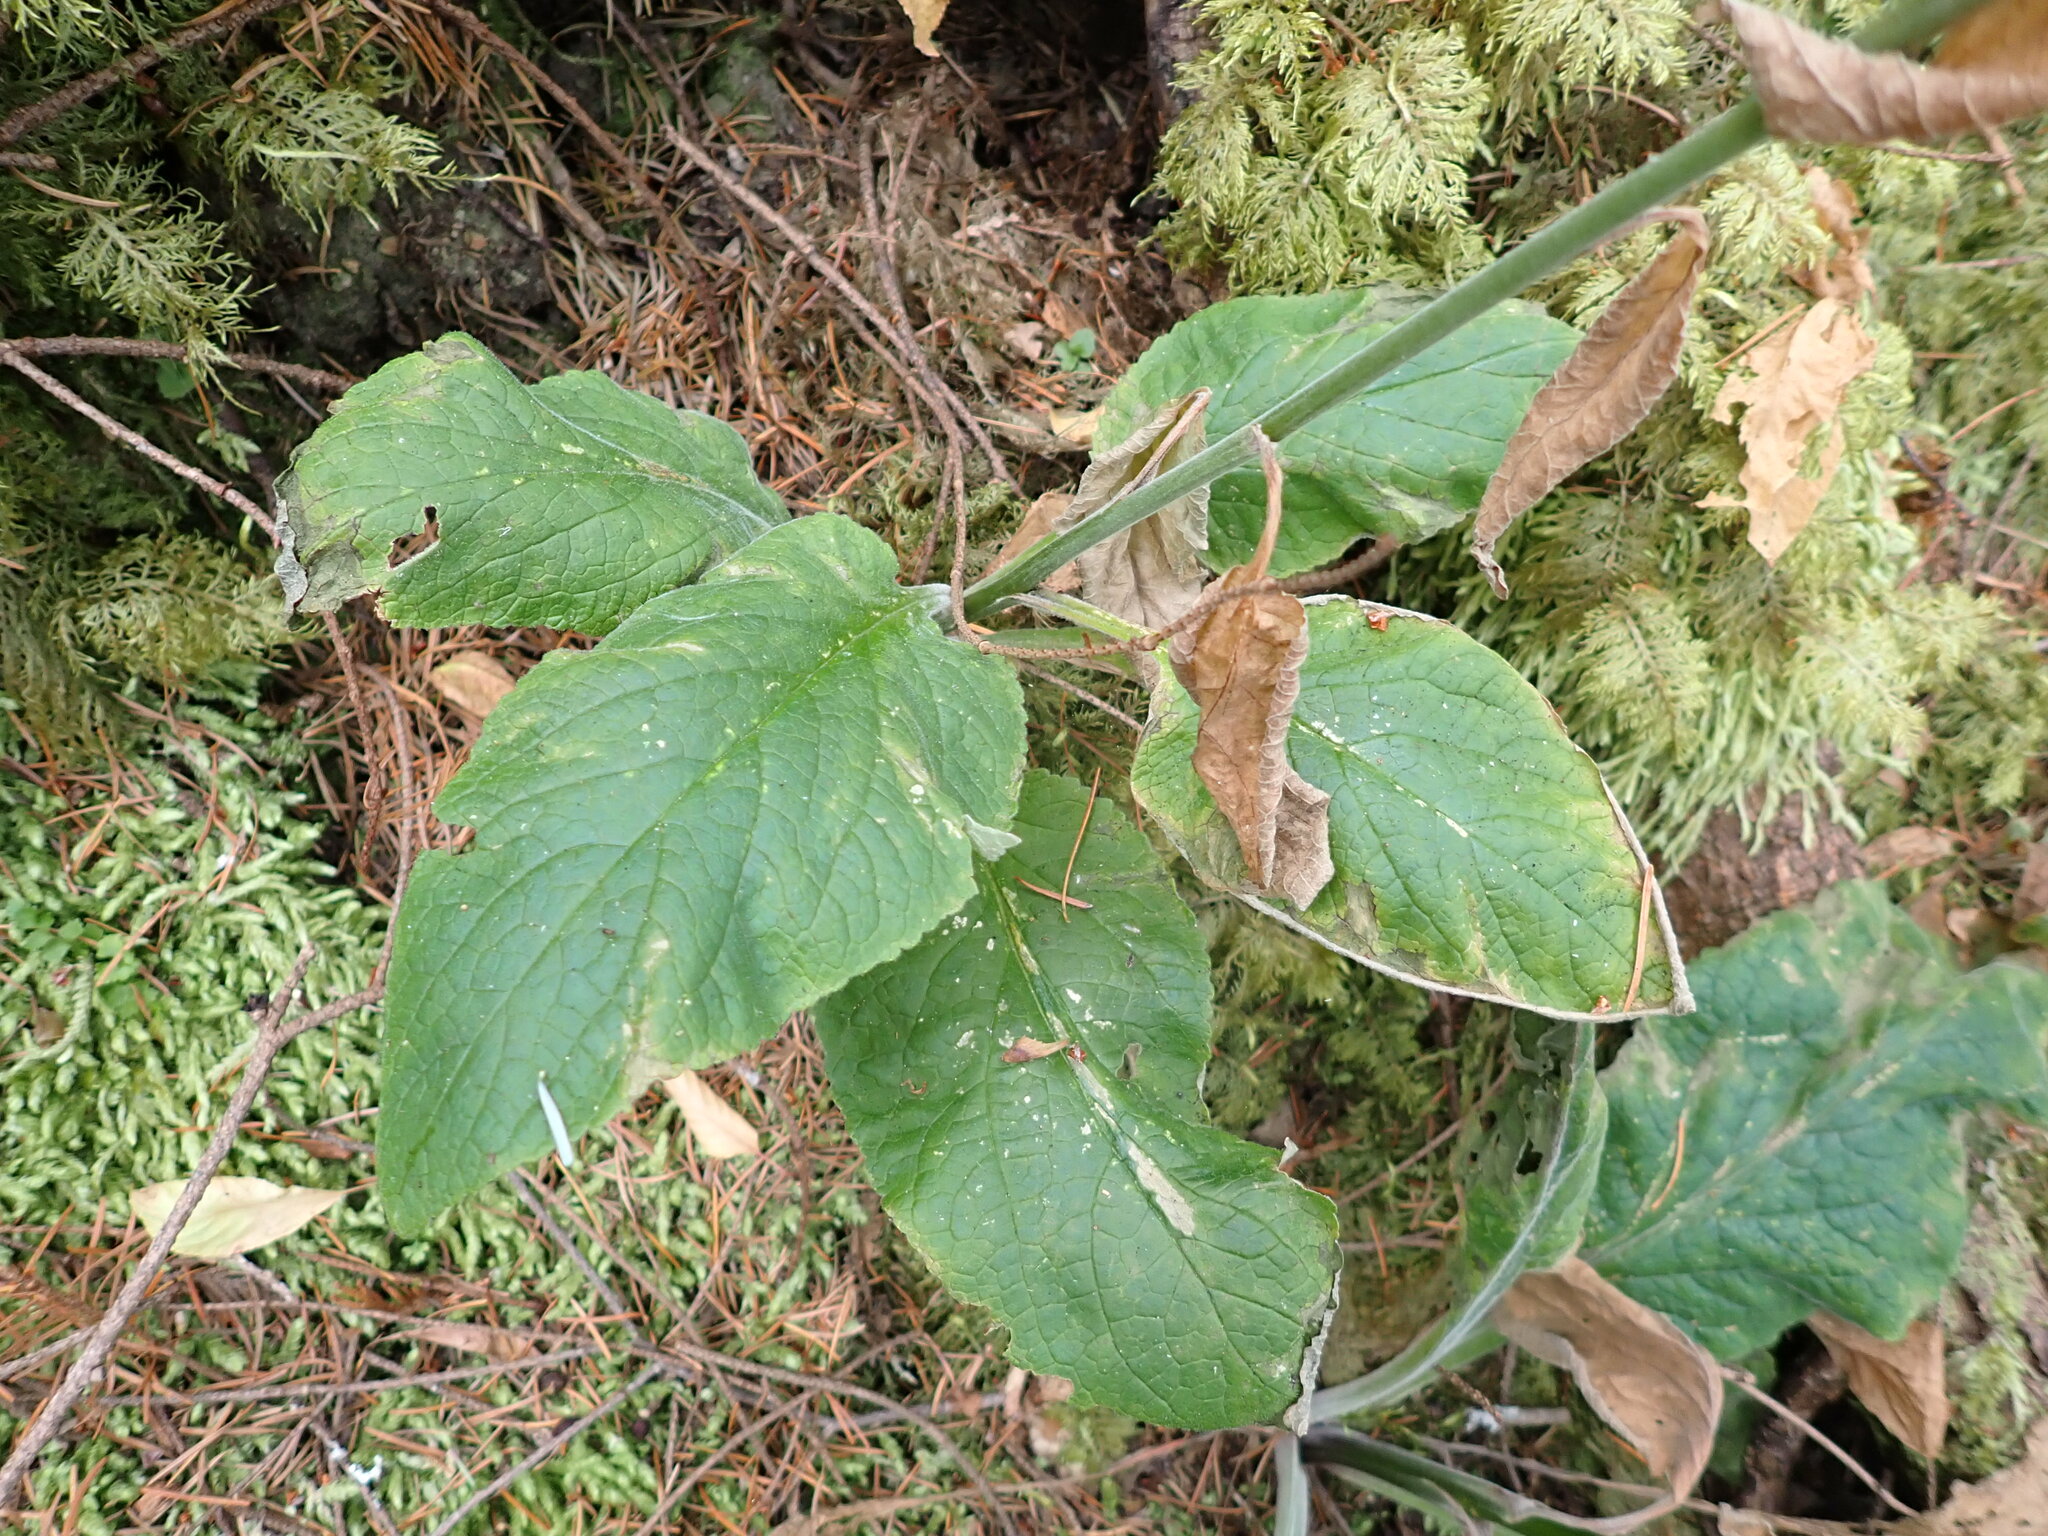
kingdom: Plantae
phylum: Tracheophyta
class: Magnoliopsida
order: Lamiales
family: Plantaginaceae
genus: Digitalis
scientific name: Digitalis purpurea
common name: Foxglove
